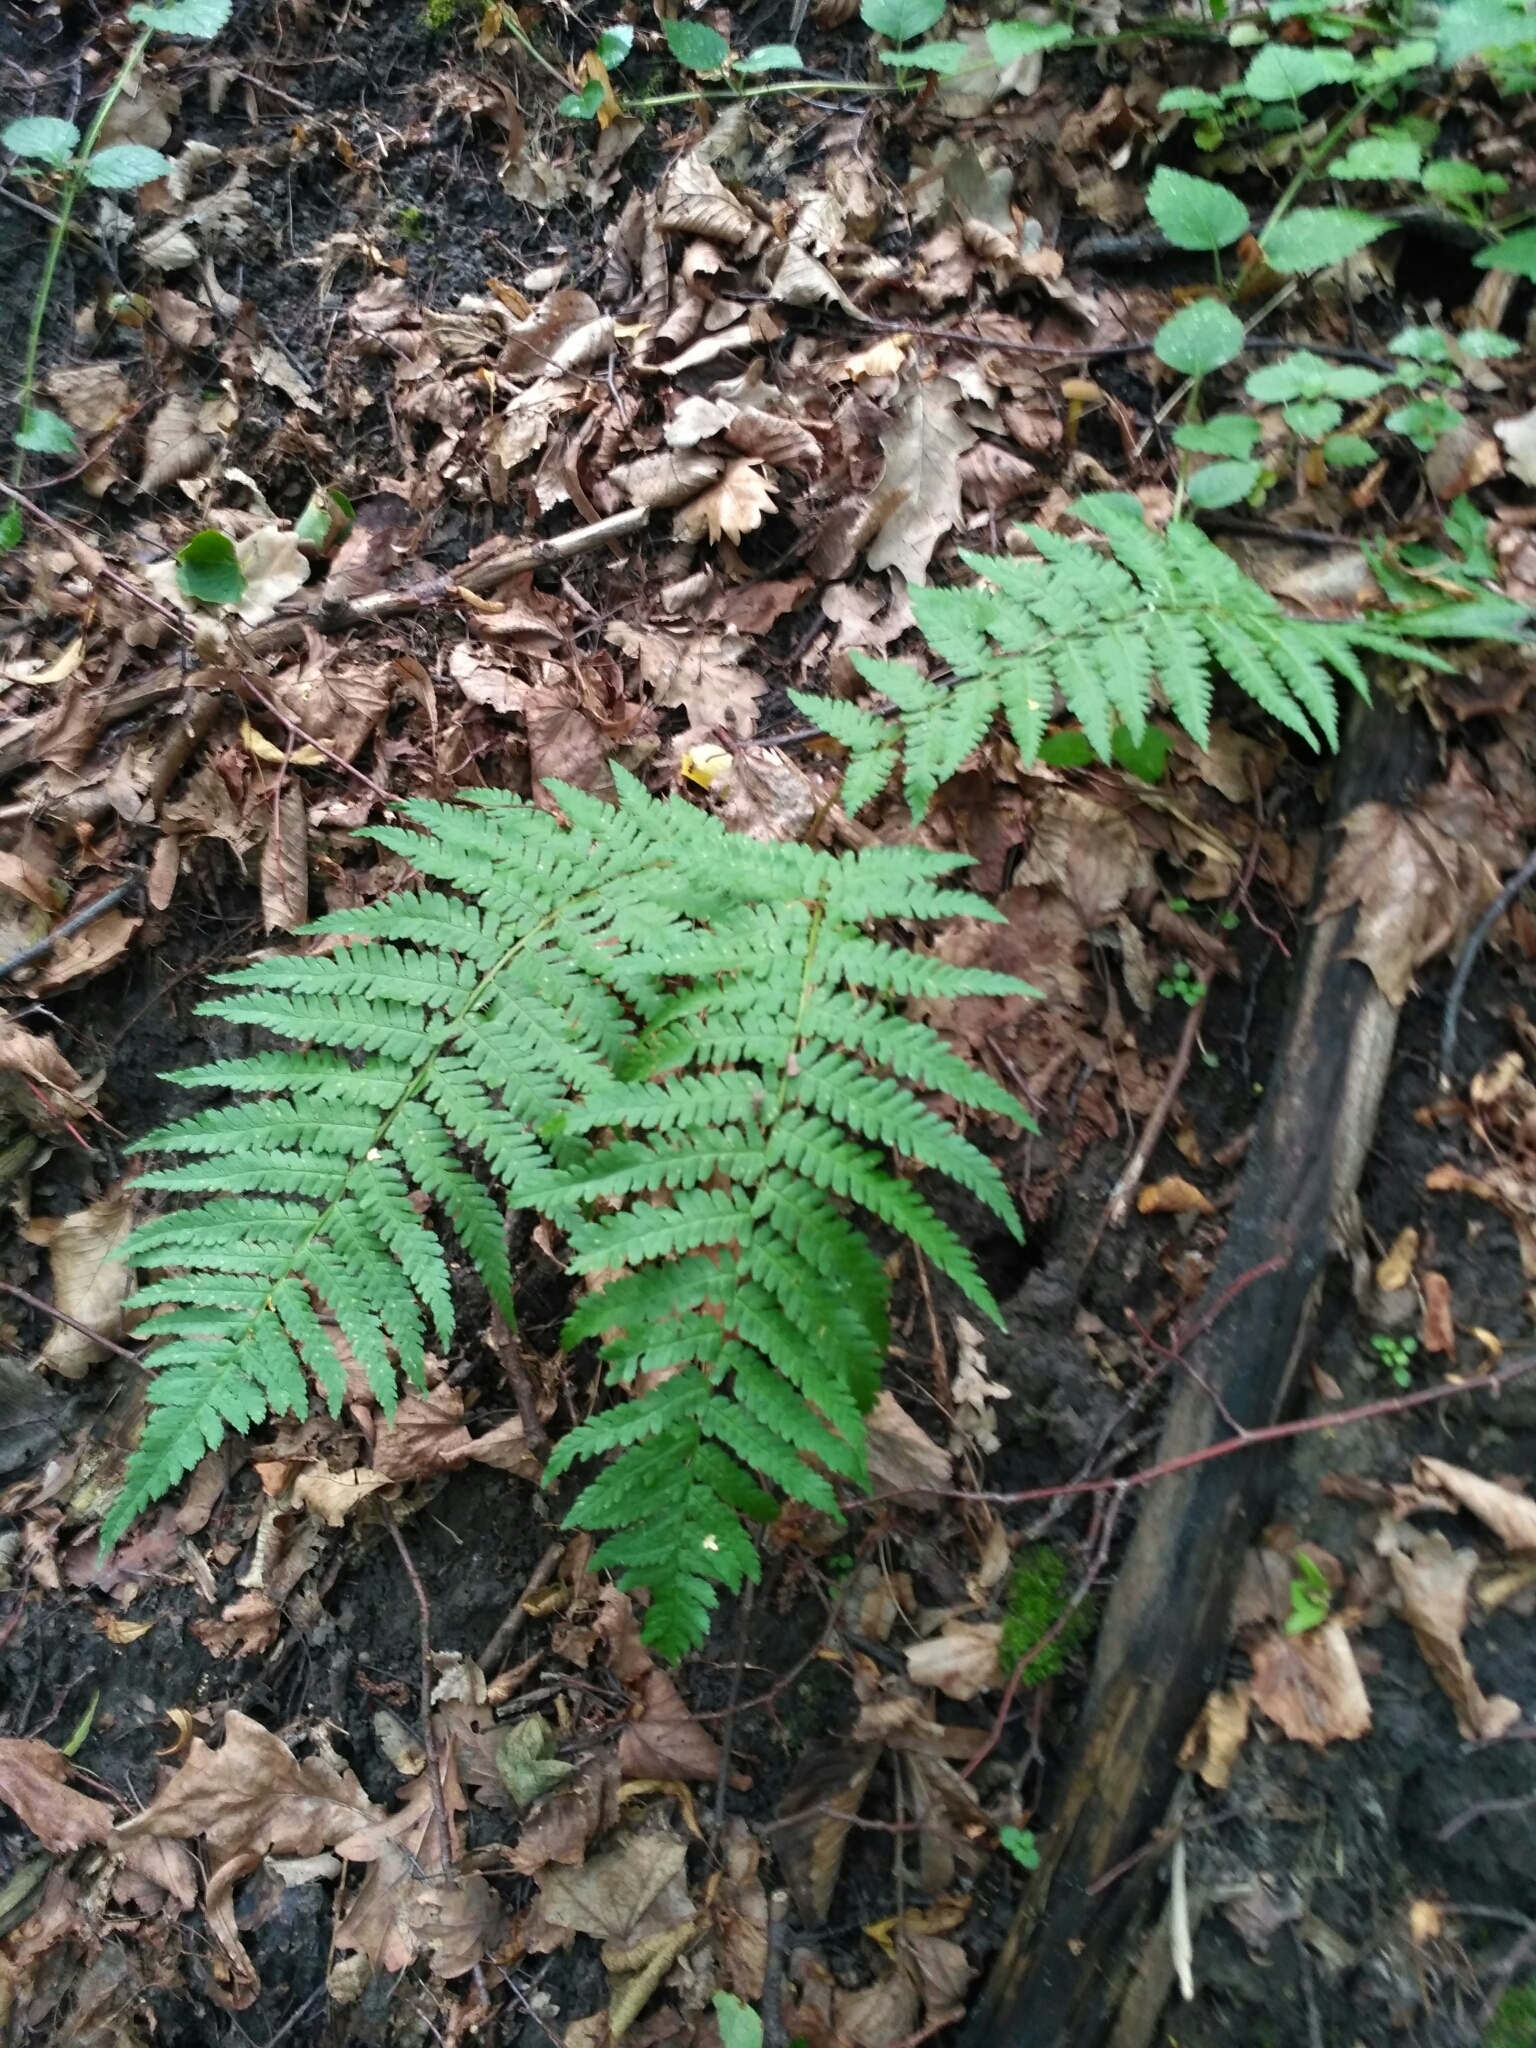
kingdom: Plantae
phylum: Tracheophyta
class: Polypodiopsida
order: Polypodiales
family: Dryopteridaceae
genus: Dryopteris
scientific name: Dryopteris filix-mas
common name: Male fern
